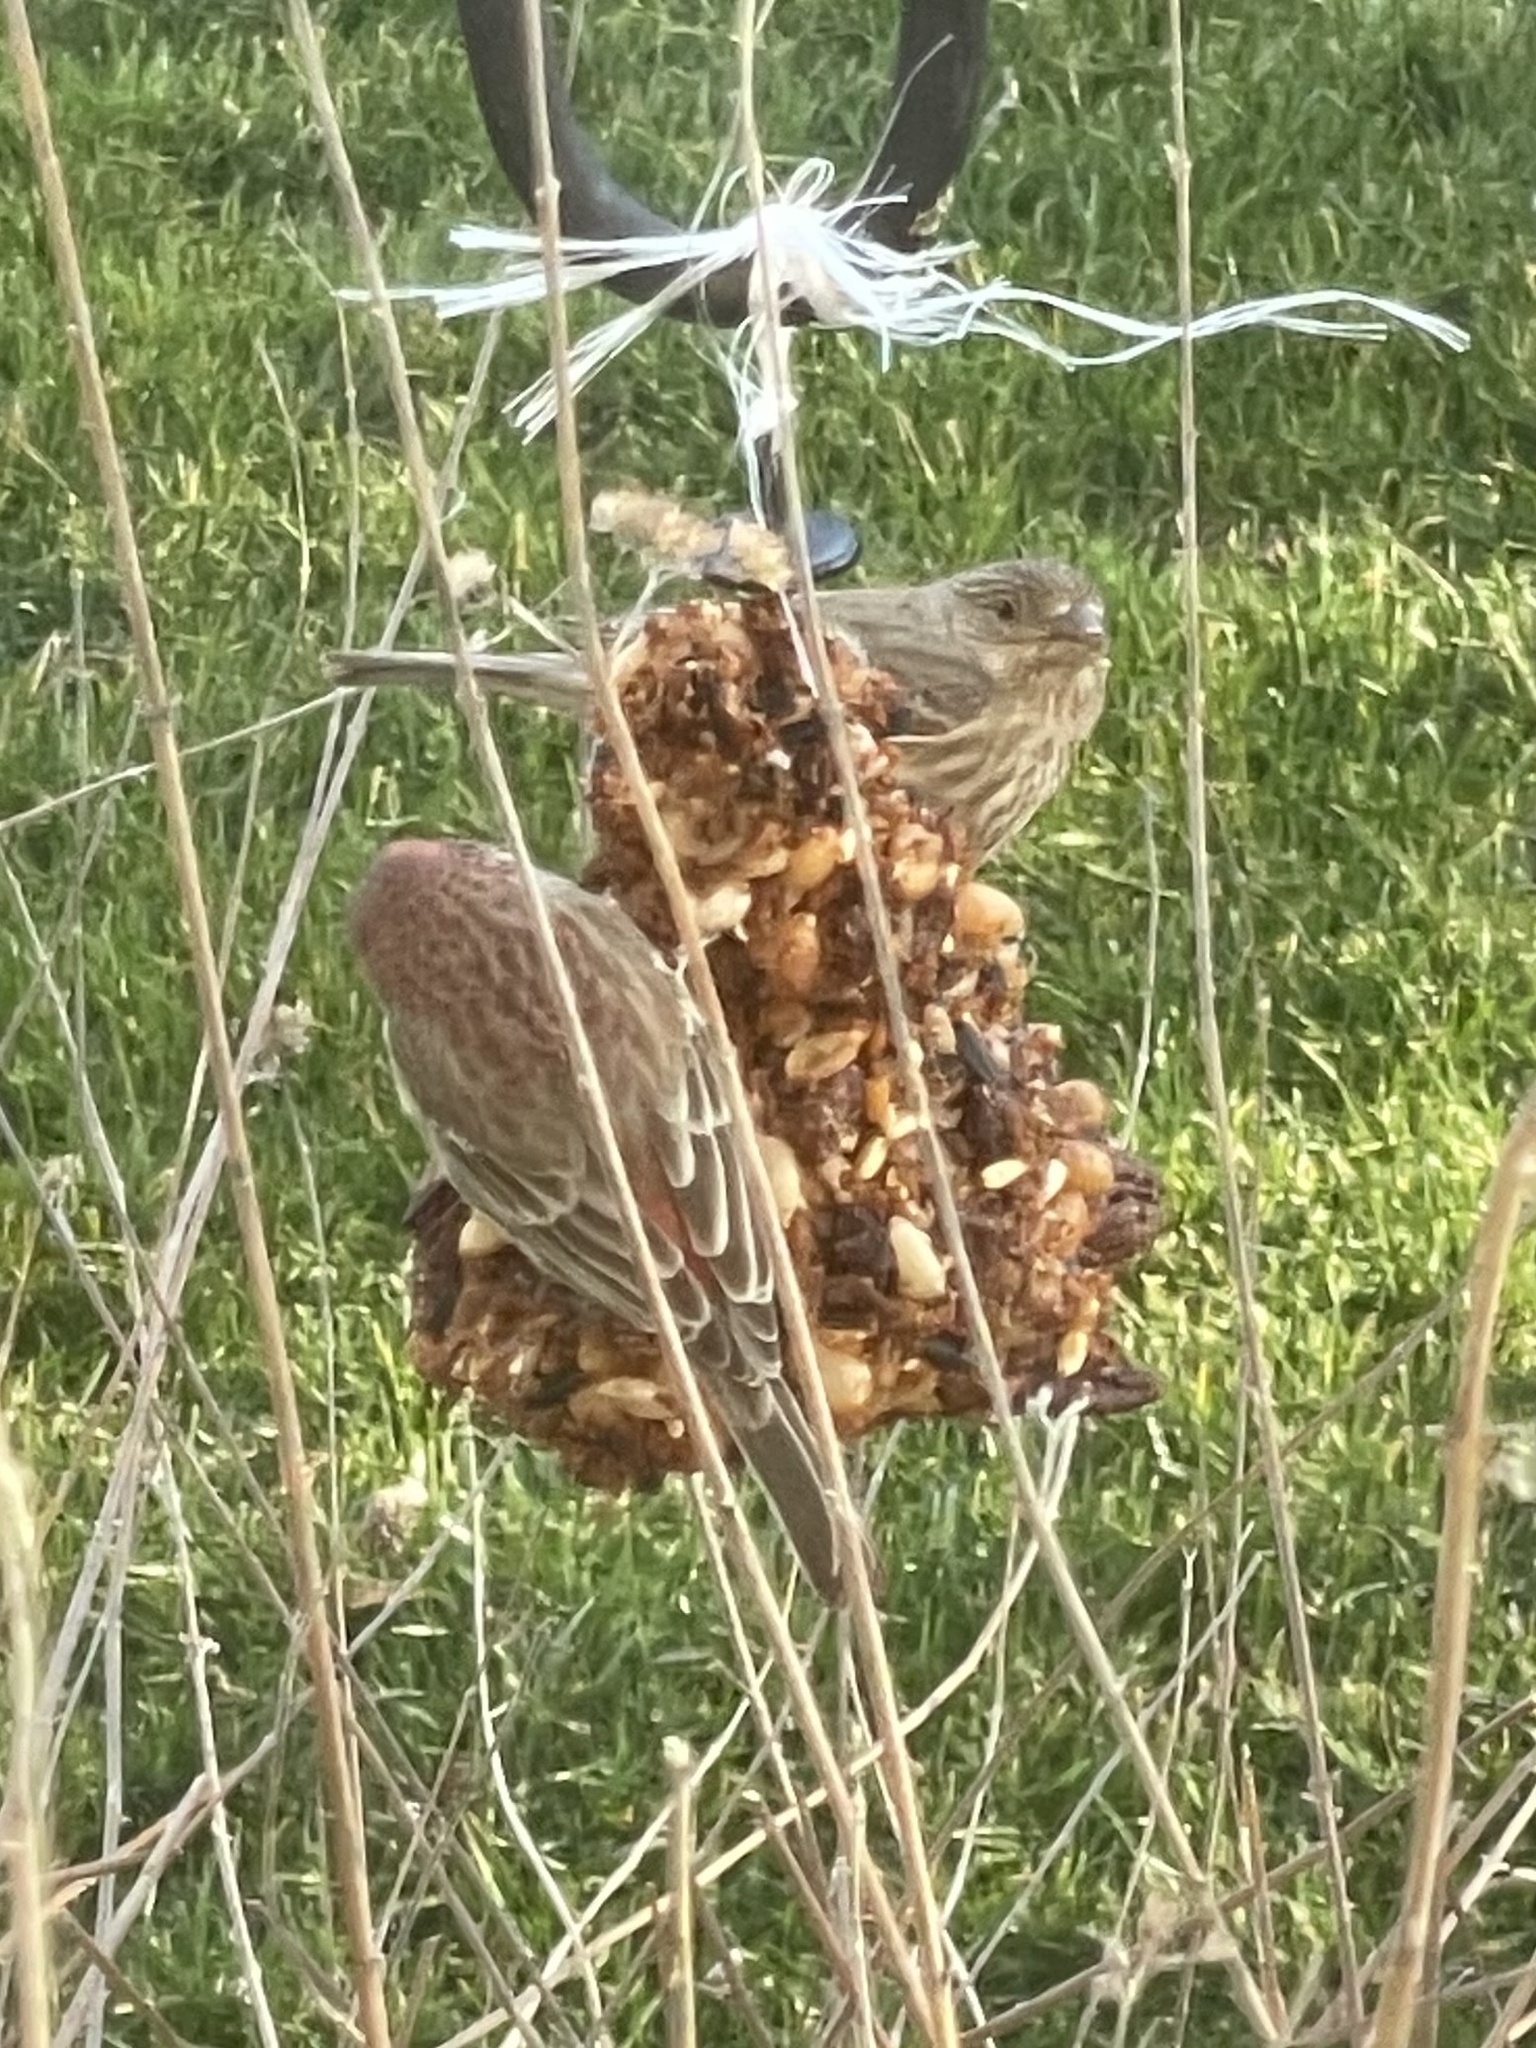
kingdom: Animalia
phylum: Chordata
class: Aves
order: Passeriformes
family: Fringillidae
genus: Haemorhous
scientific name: Haemorhous mexicanus
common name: House finch
